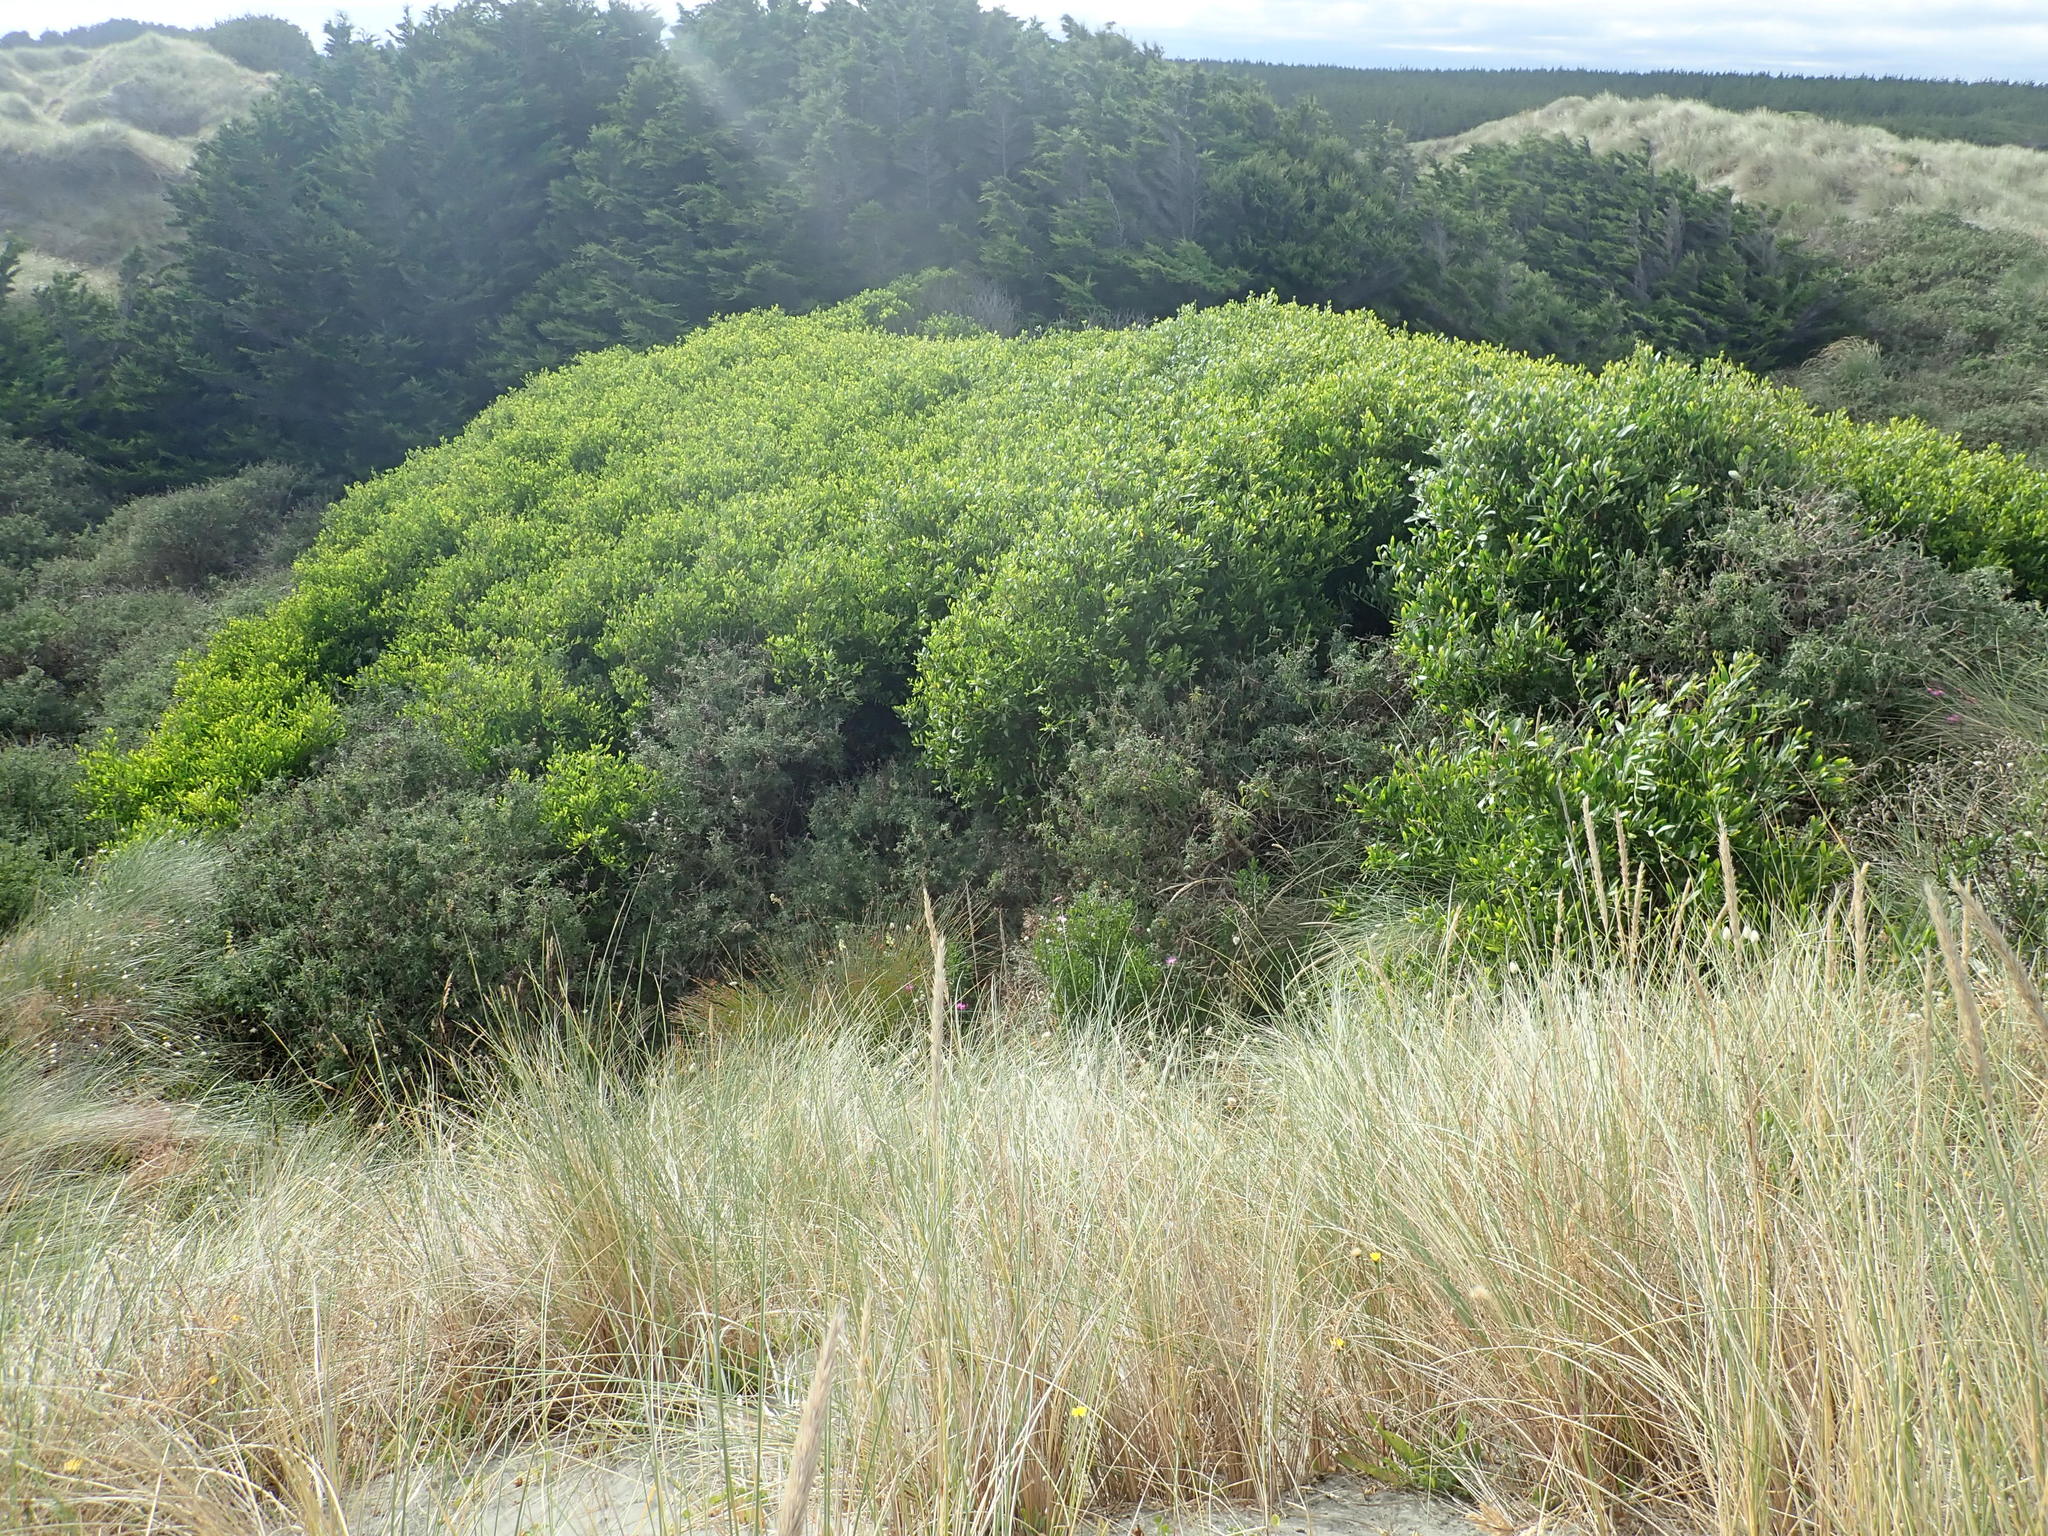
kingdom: Plantae
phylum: Tracheophyta
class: Magnoliopsida
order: Fabales
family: Fabaceae
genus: Acacia
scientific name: Acacia longifolia
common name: Sydney golden wattle
